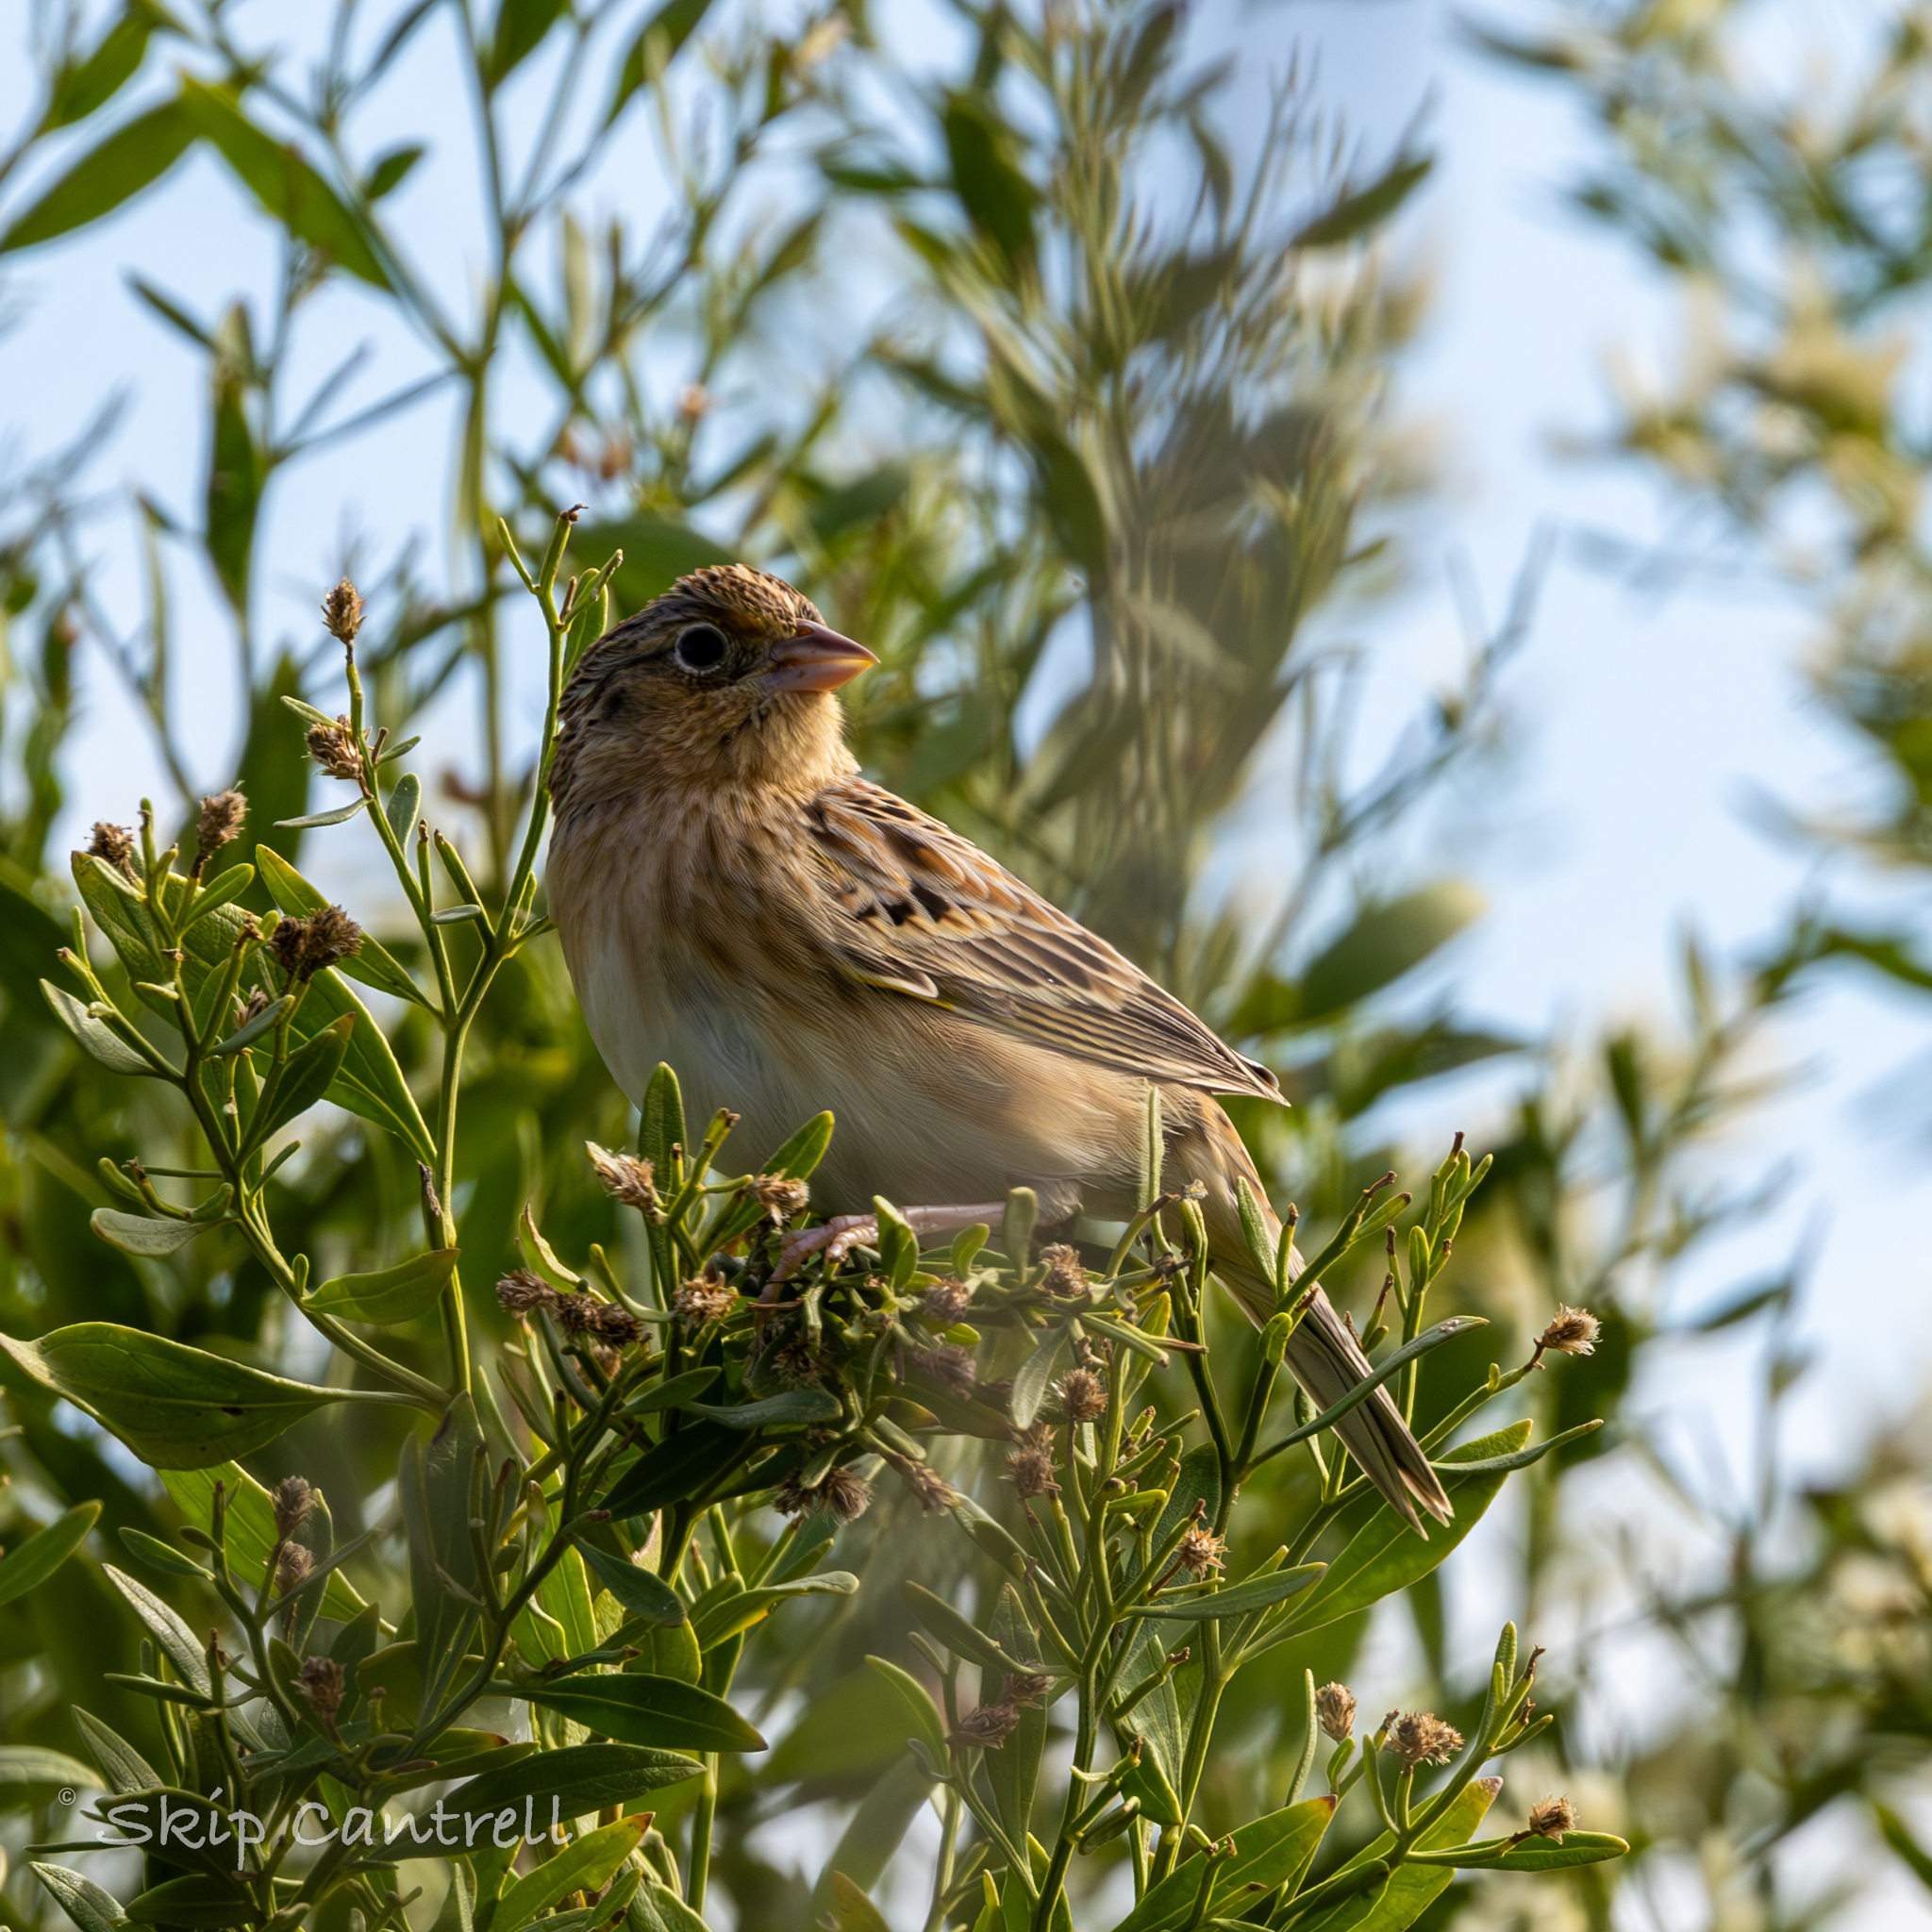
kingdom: Animalia
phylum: Chordata
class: Aves
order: Passeriformes
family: Passerellidae
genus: Ammodramus
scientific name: Ammodramus savannarum
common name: Grasshopper sparrow
